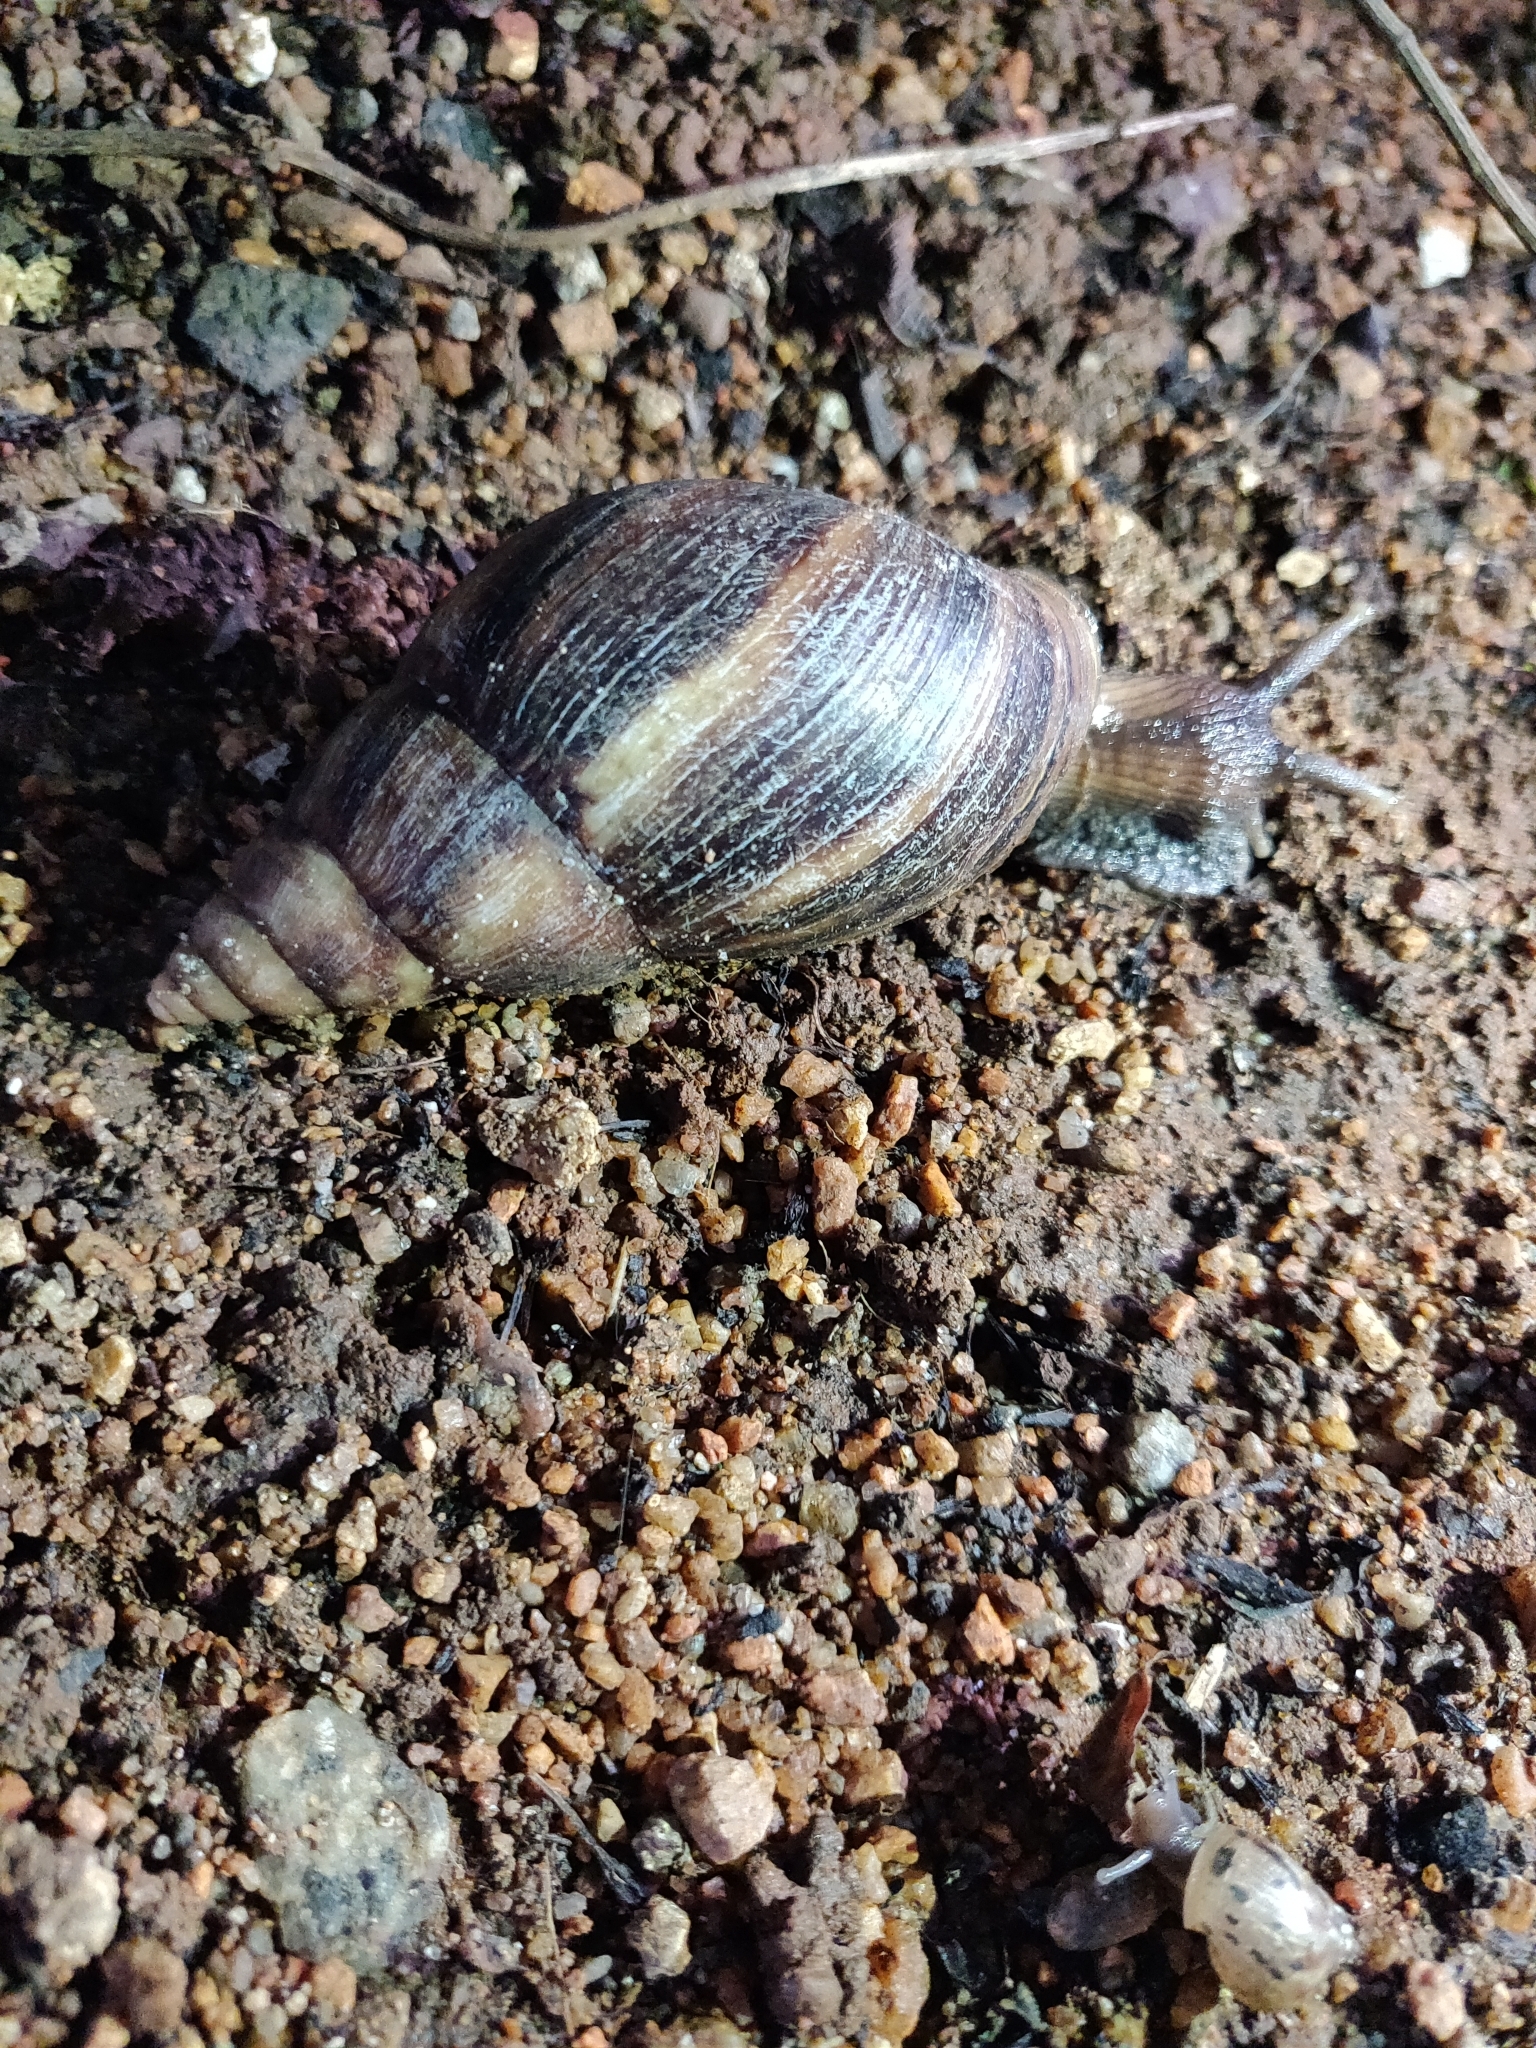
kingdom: Animalia
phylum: Mollusca
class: Gastropoda
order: Stylommatophora
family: Achatinidae
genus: Lissachatina
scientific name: Lissachatina fulica
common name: Giant african snail
